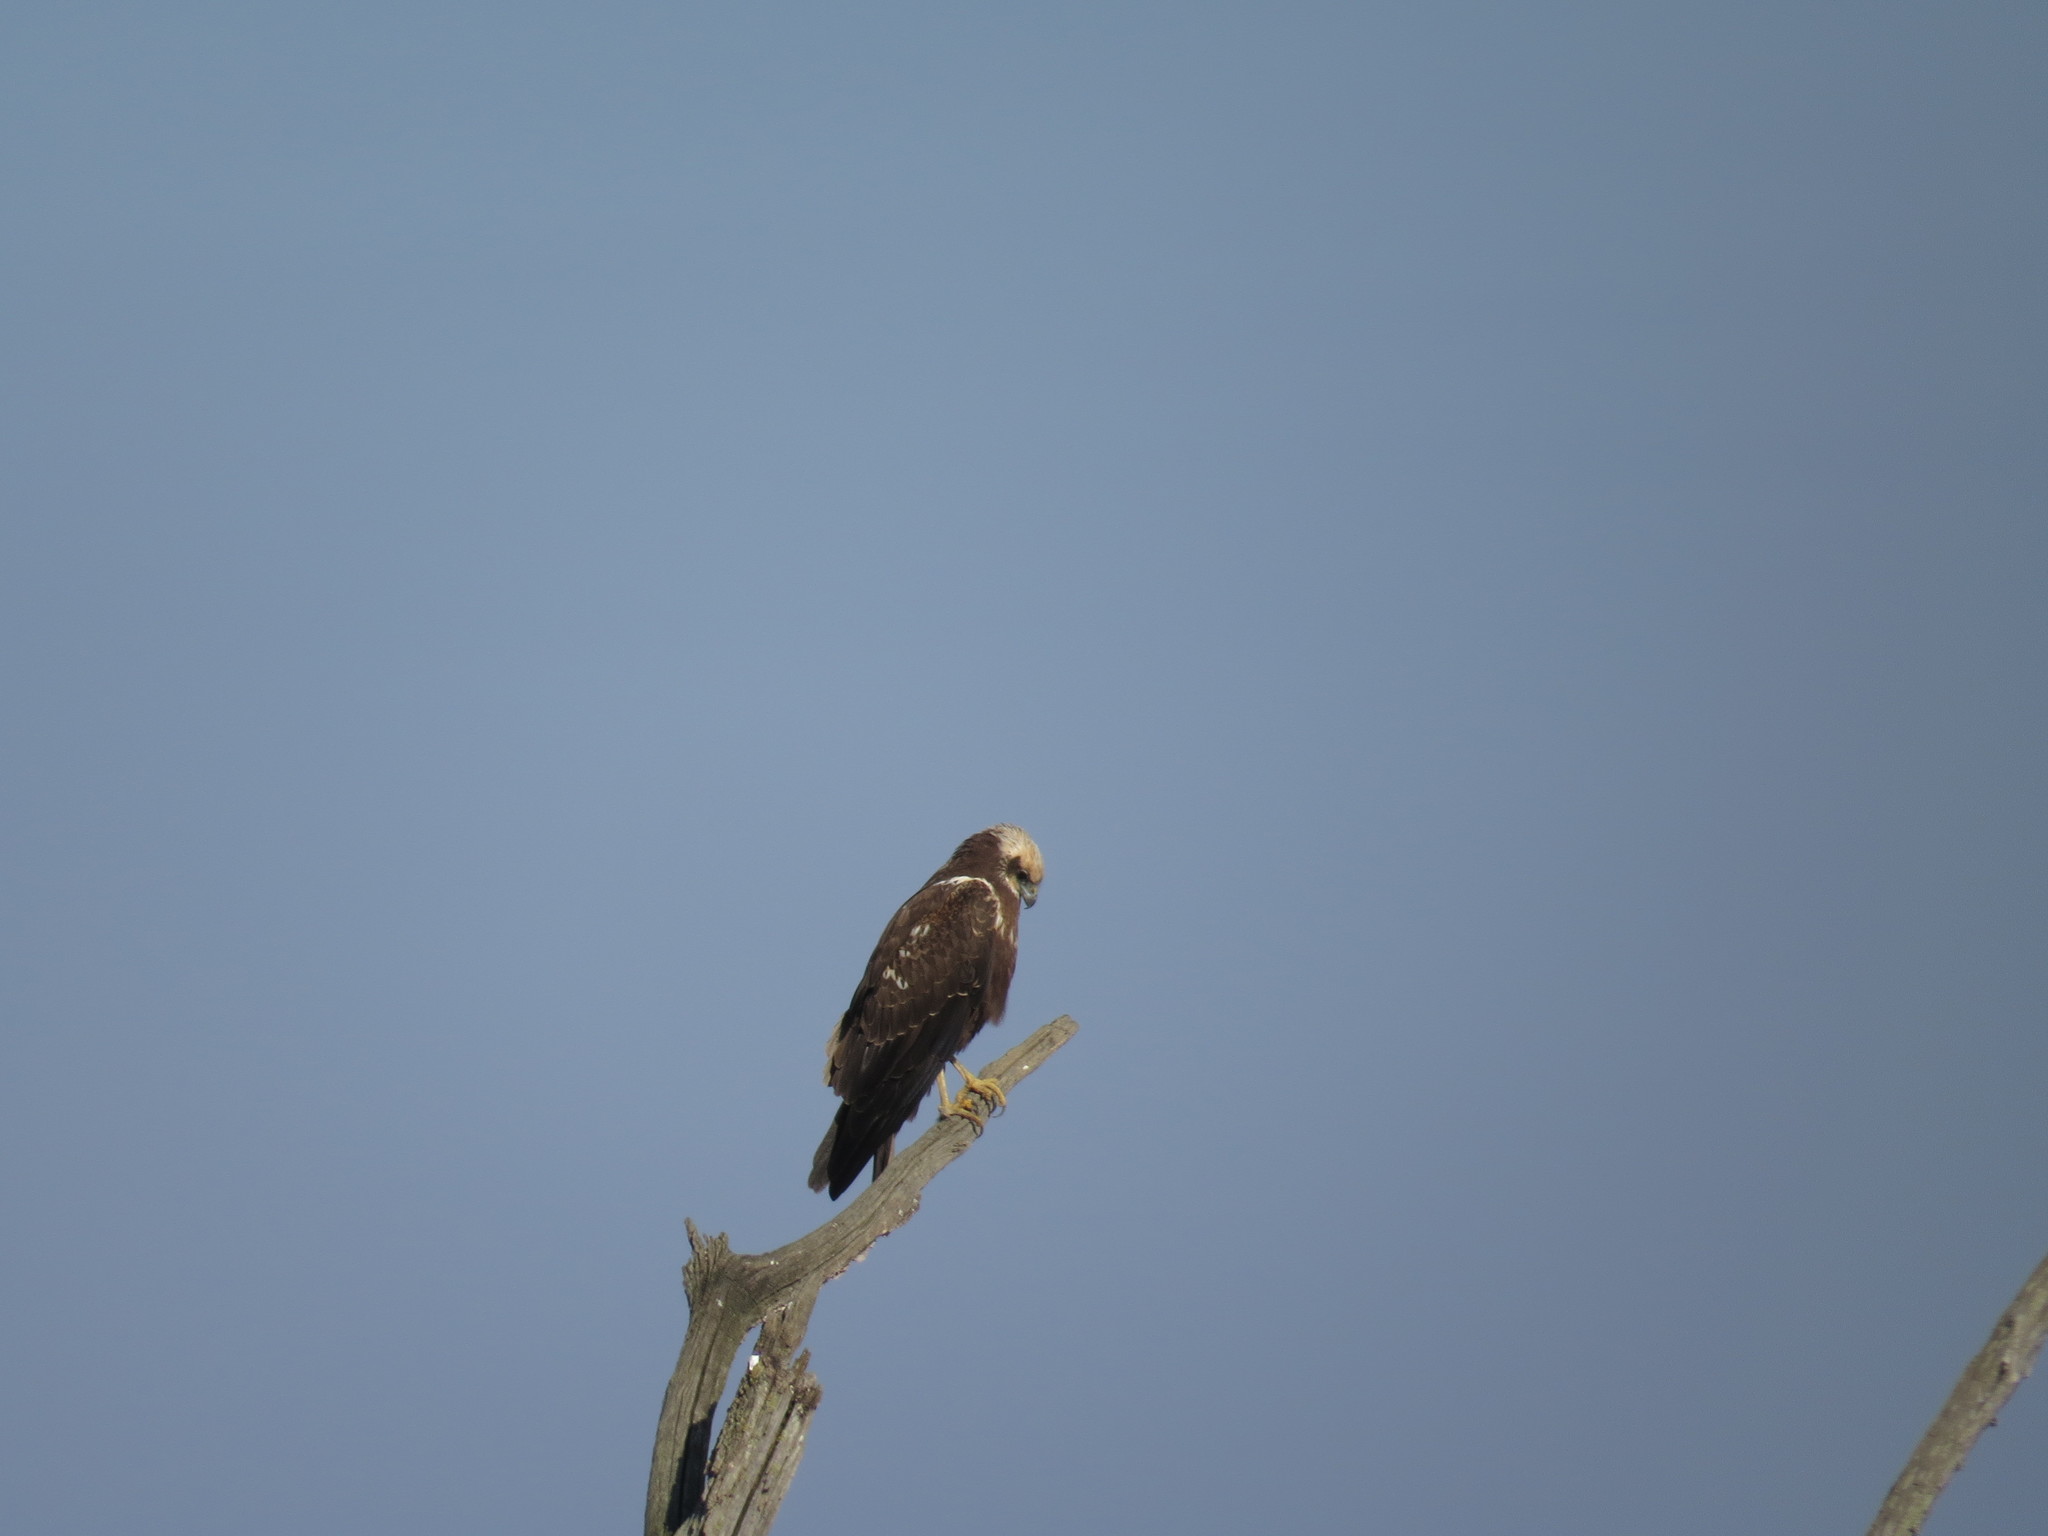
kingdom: Animalia
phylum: Chordata
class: Aves
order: Accipitriformes
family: Accipitridae
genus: Circus
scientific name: Circus aeruginosus
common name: Western marsh harrier
